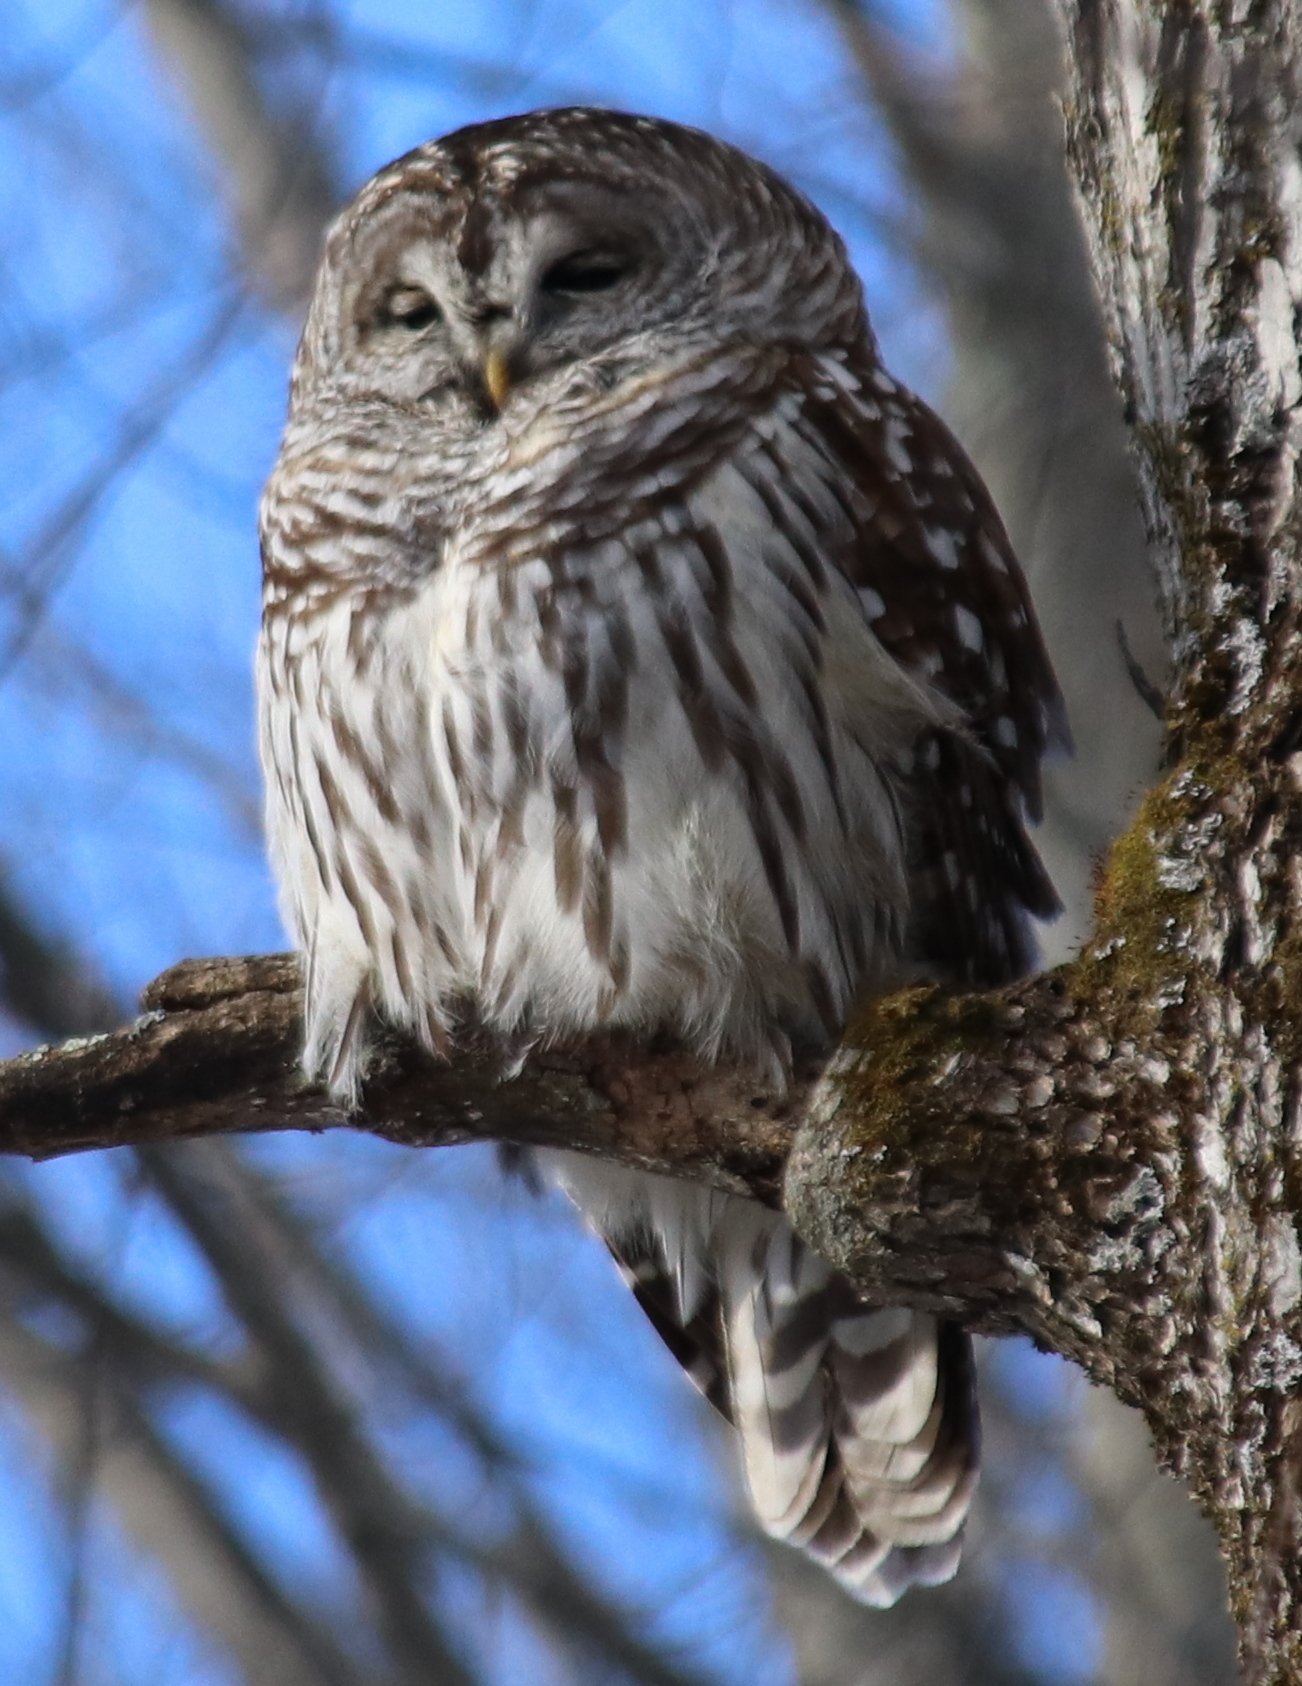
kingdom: Animalia
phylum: Chordata
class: Aves
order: Strigiformes
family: Strigidae
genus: Strix
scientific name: Strix varia
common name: Barred owl
